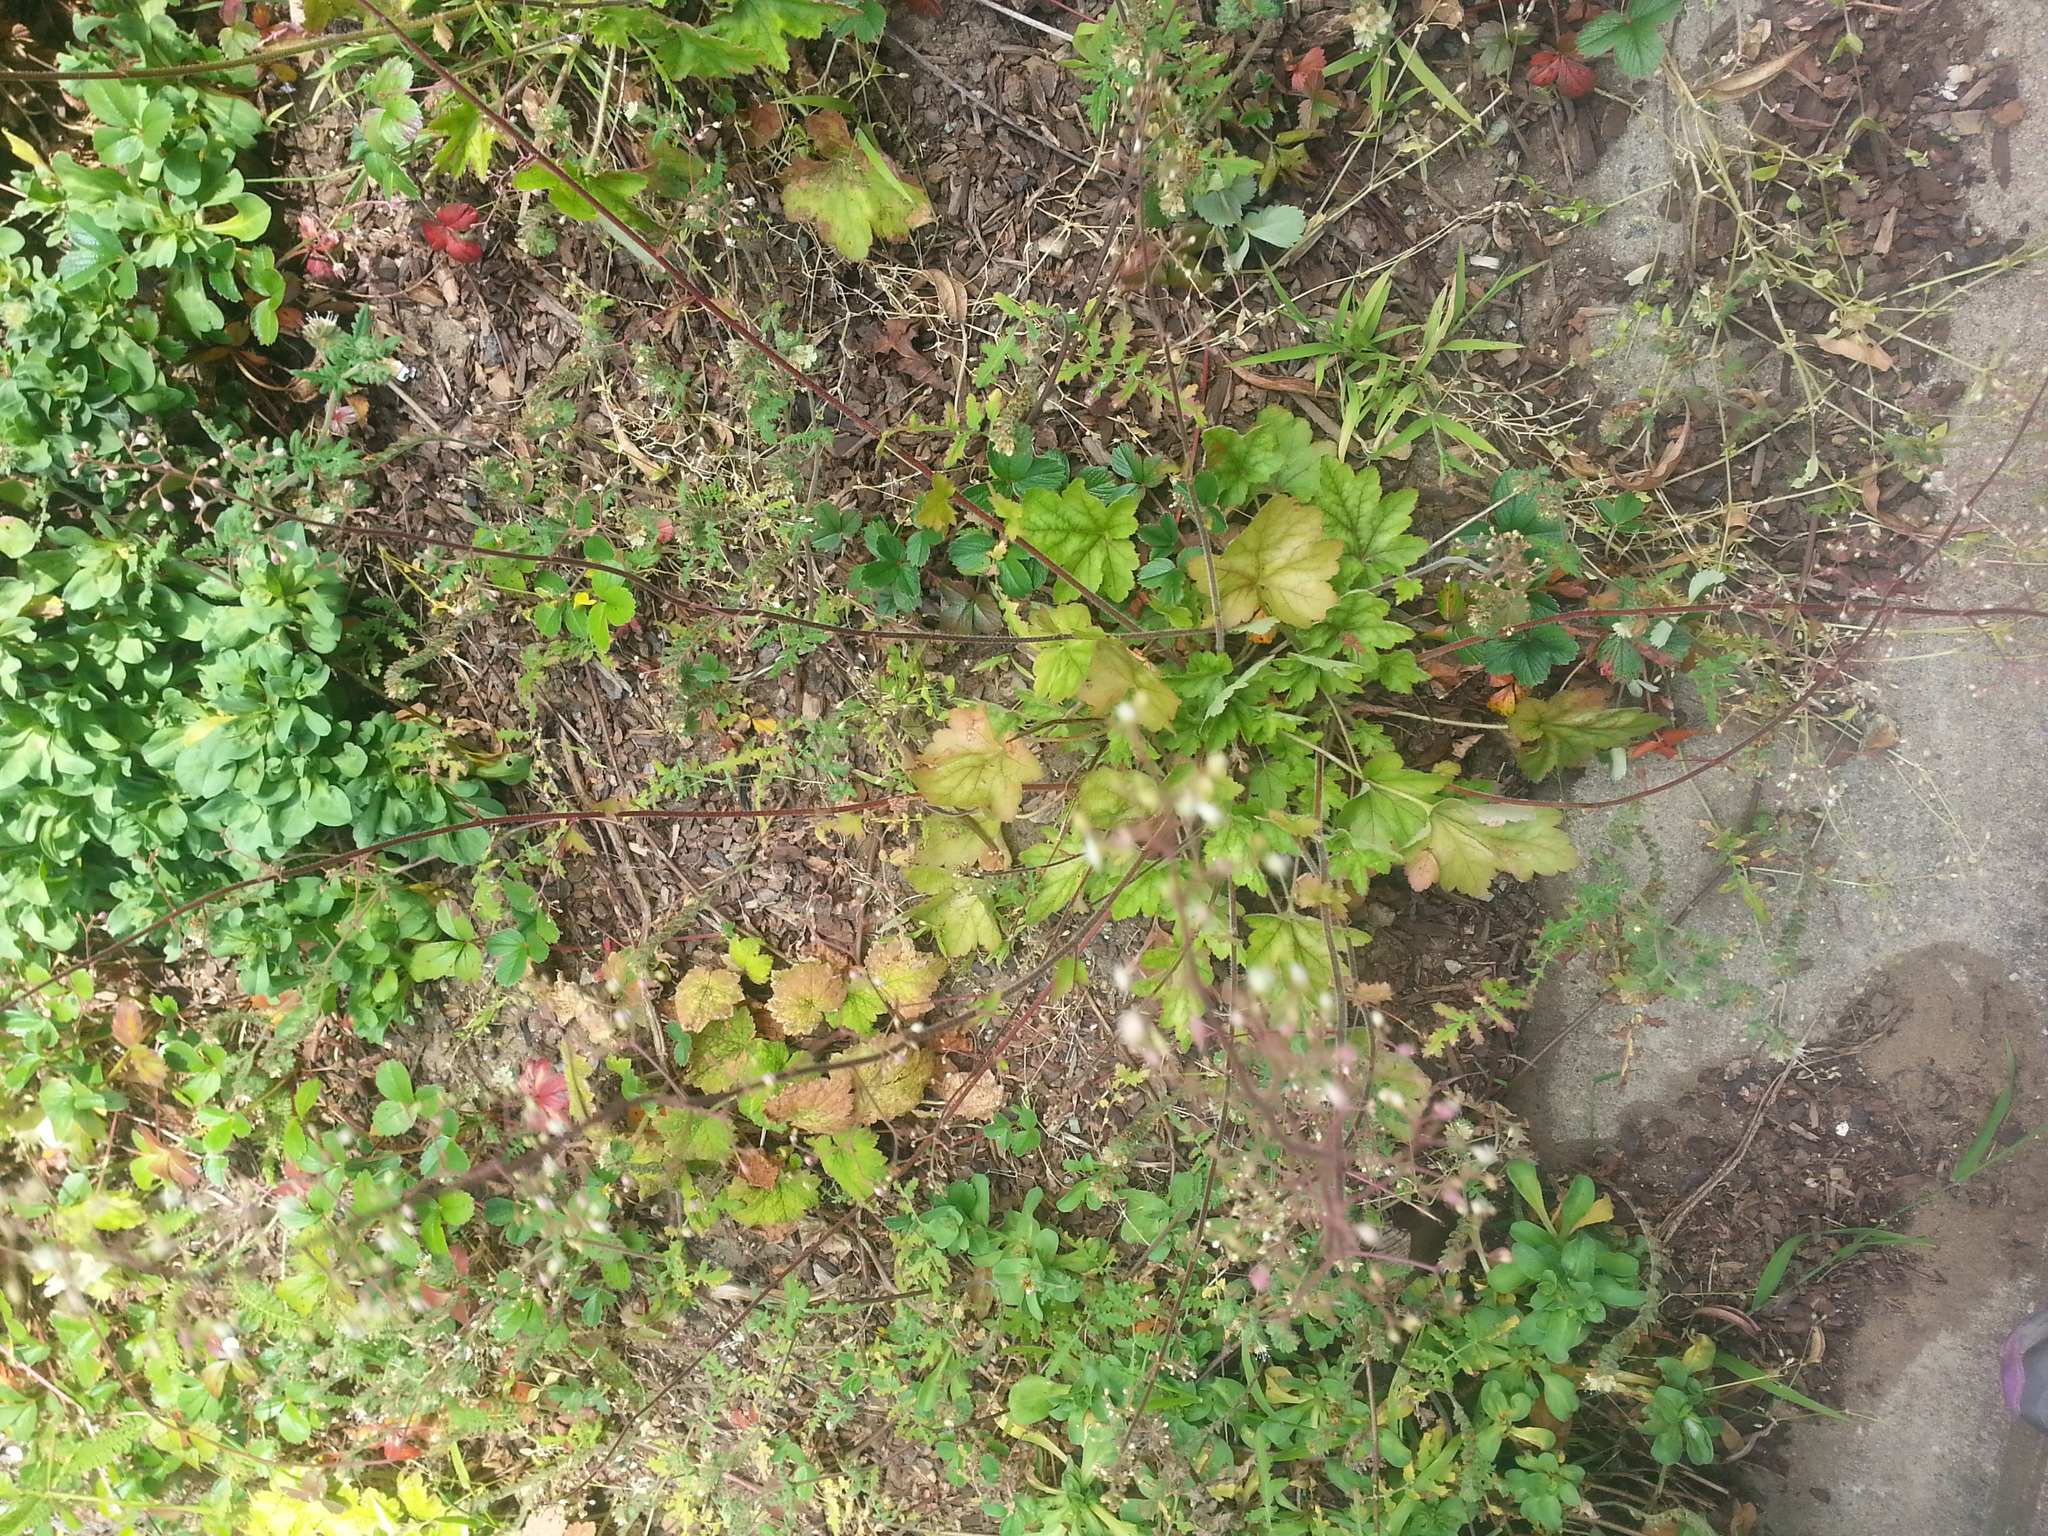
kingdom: Plantae
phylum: Tracheophyta
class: Magnoliopsida
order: Saxifragales
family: Saxifragaceae
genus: Heuchera
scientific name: Heuchera micrantha
